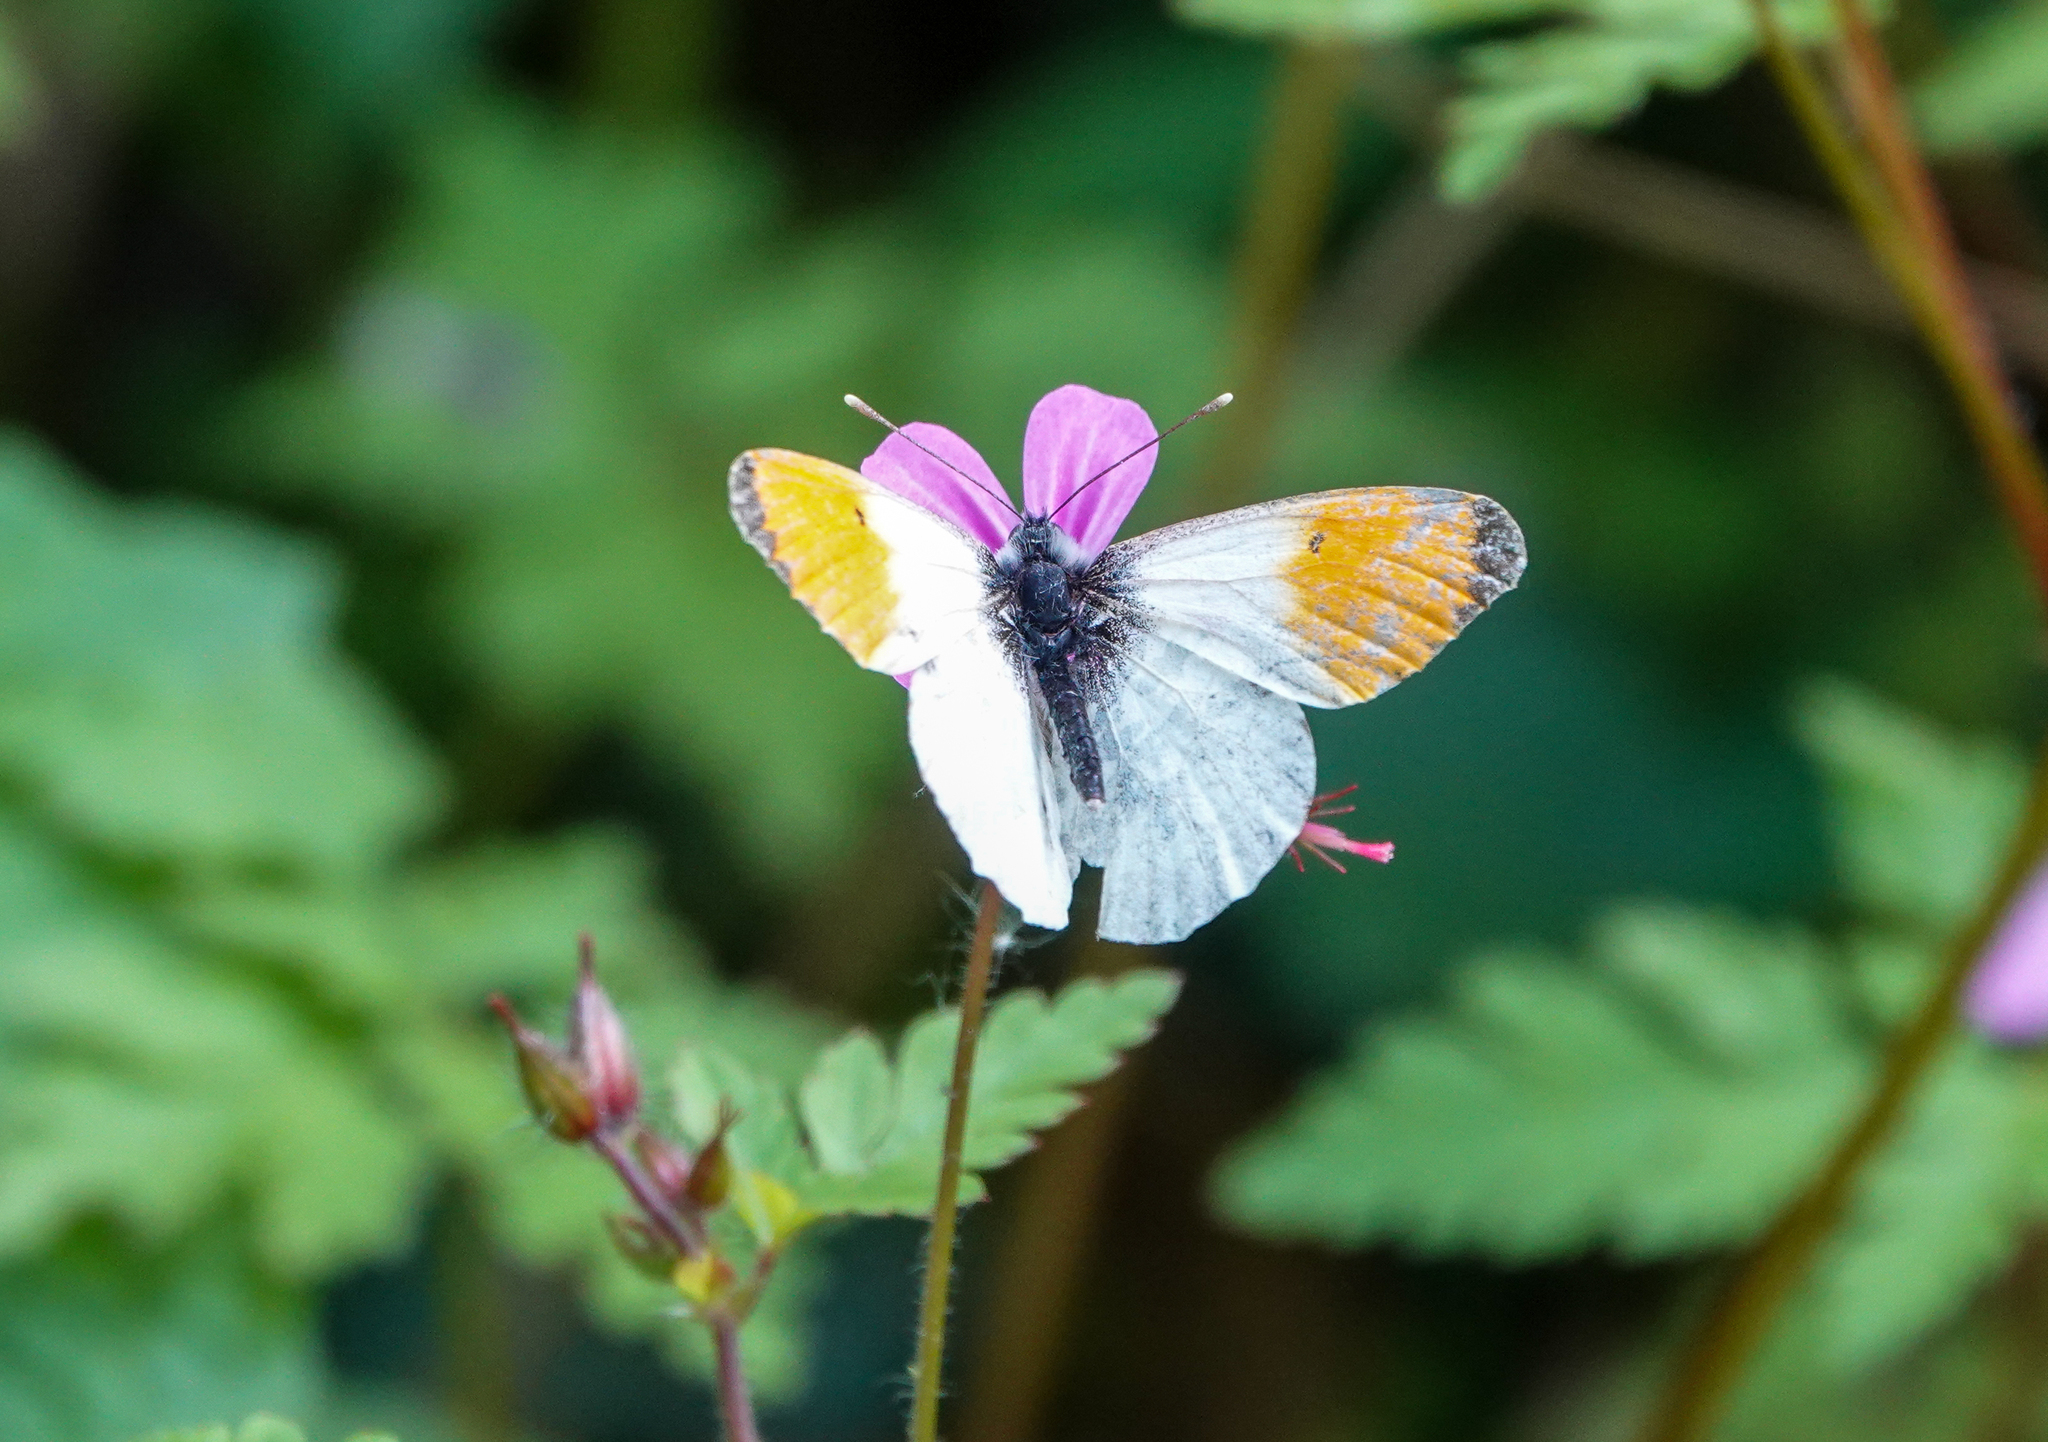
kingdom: Animalia
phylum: Arthropoda
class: Insecta
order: Lepidoptera
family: Pieridae
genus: Anthocharis
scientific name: Anthocharis cardamines
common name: Orange-tip
